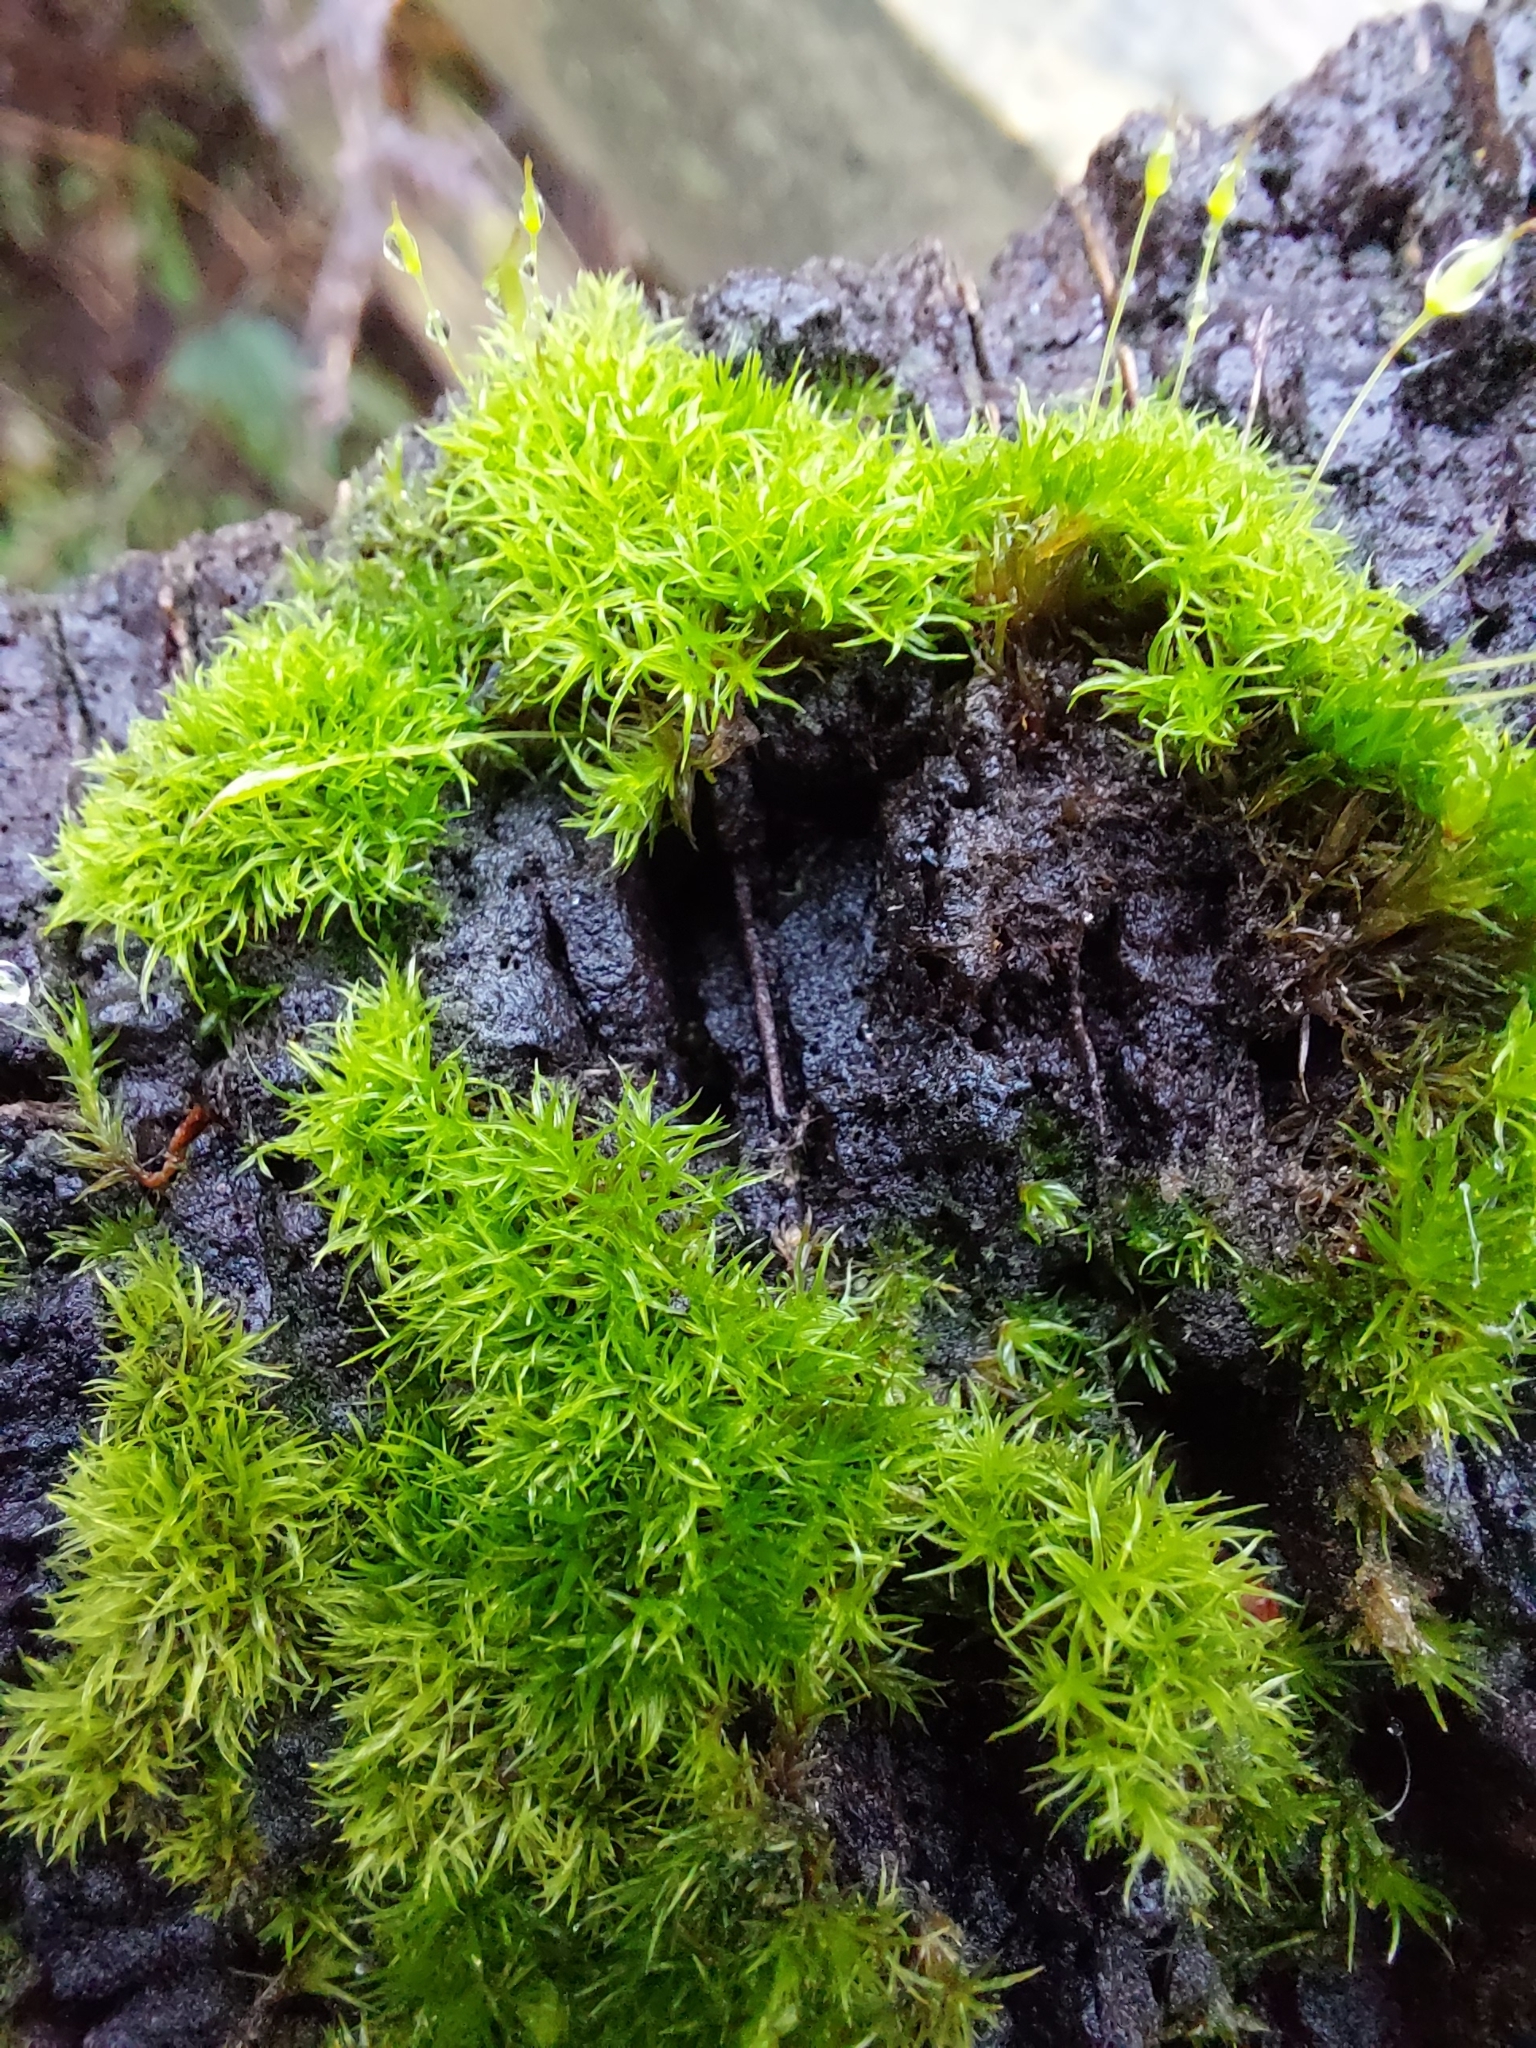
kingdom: Plantae
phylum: Bryophyta
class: Bryopsida
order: Dicranales
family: Rhabdoweisiaceae
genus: Dicranoweisia
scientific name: Dicranoweisia cirrata
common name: Common pincushion
